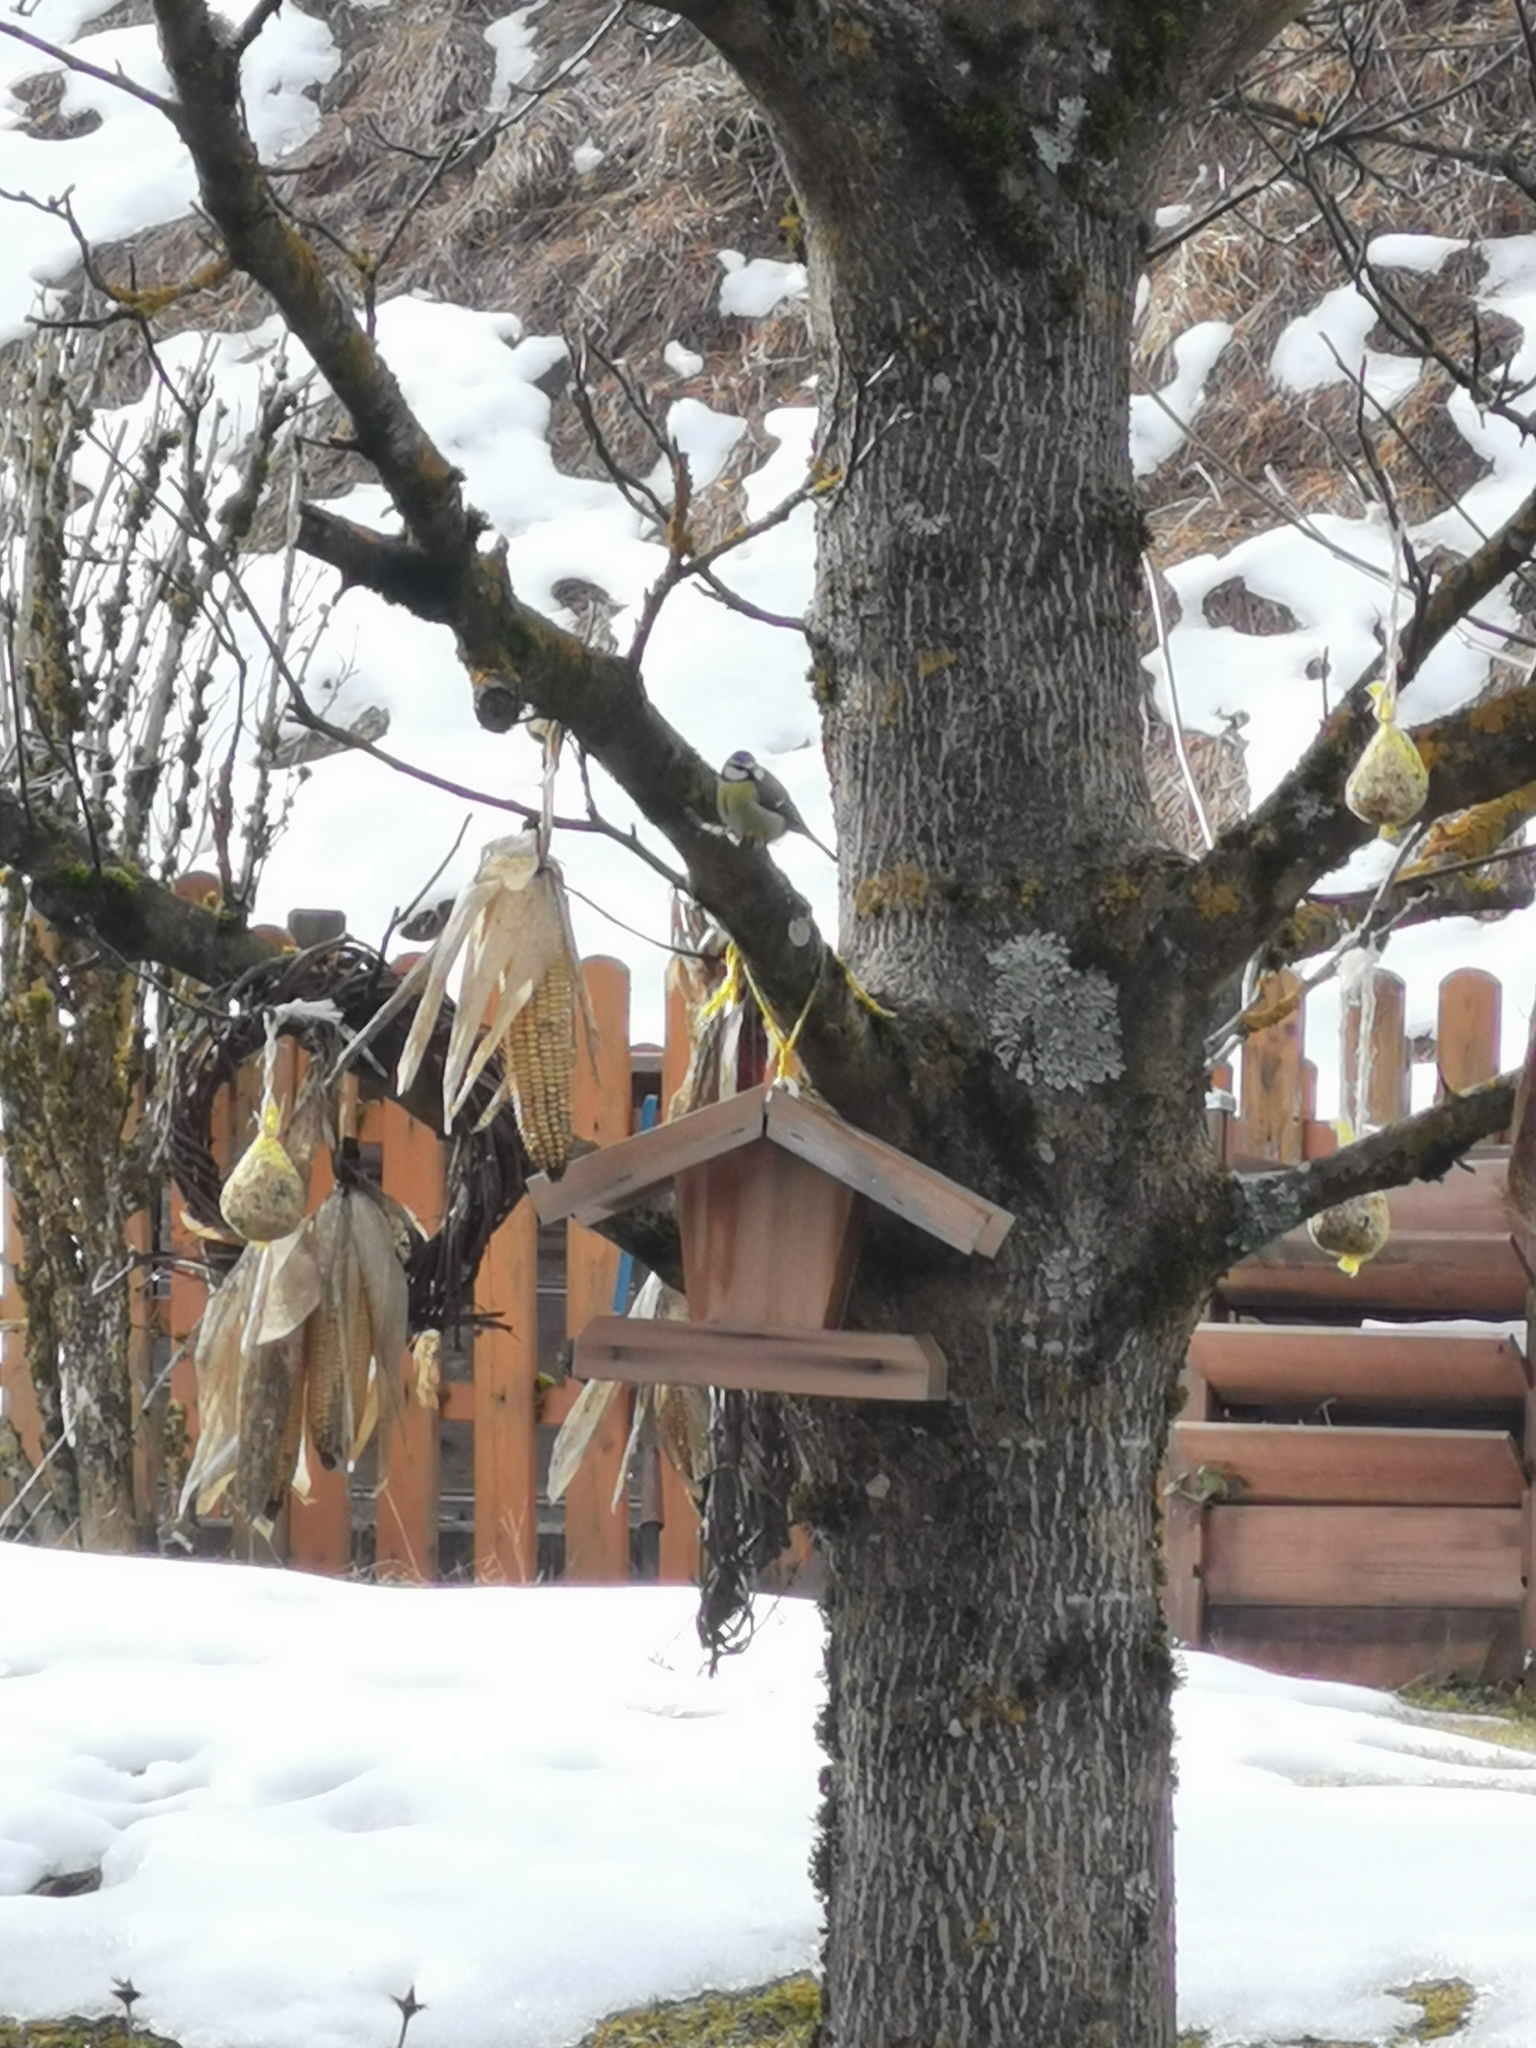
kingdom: Animalia
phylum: Chordata
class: Aves
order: Passeriformes
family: Paridae
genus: Cyanistes
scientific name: Cyanistes caeruleus
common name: Eurasian blue tit
